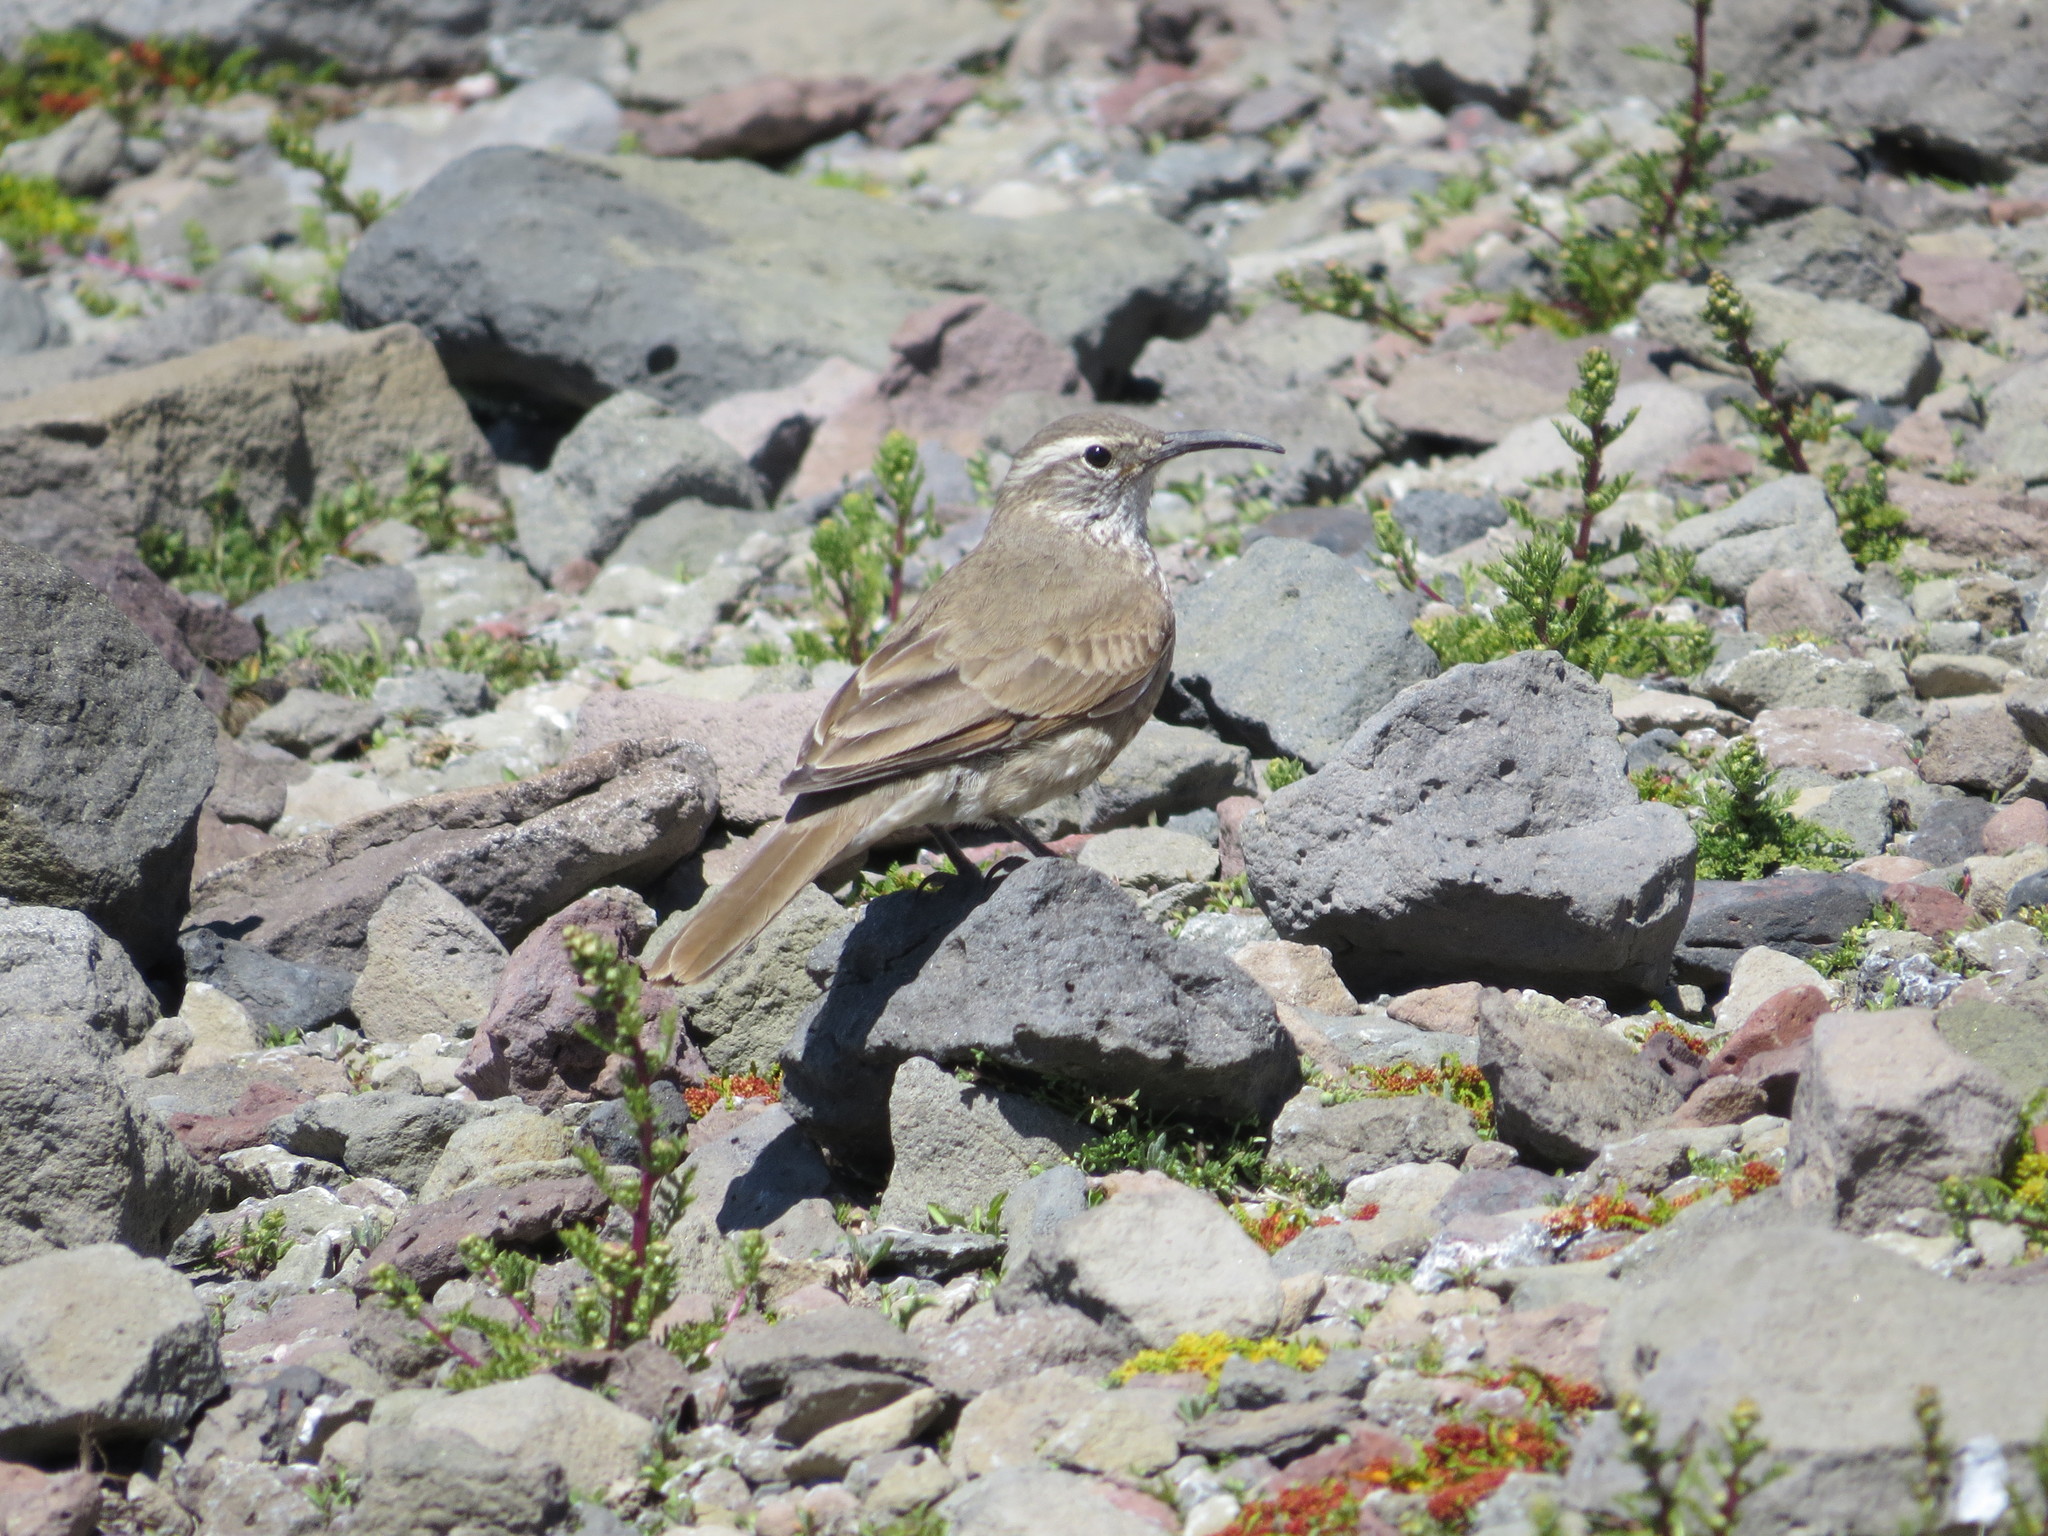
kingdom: Animalia
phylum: Chordata
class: Aves
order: Passeriformes
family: Furnariidae
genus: Upucerthia
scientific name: Upucerthia dumetaria
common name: Scale-throated earthcreeper
